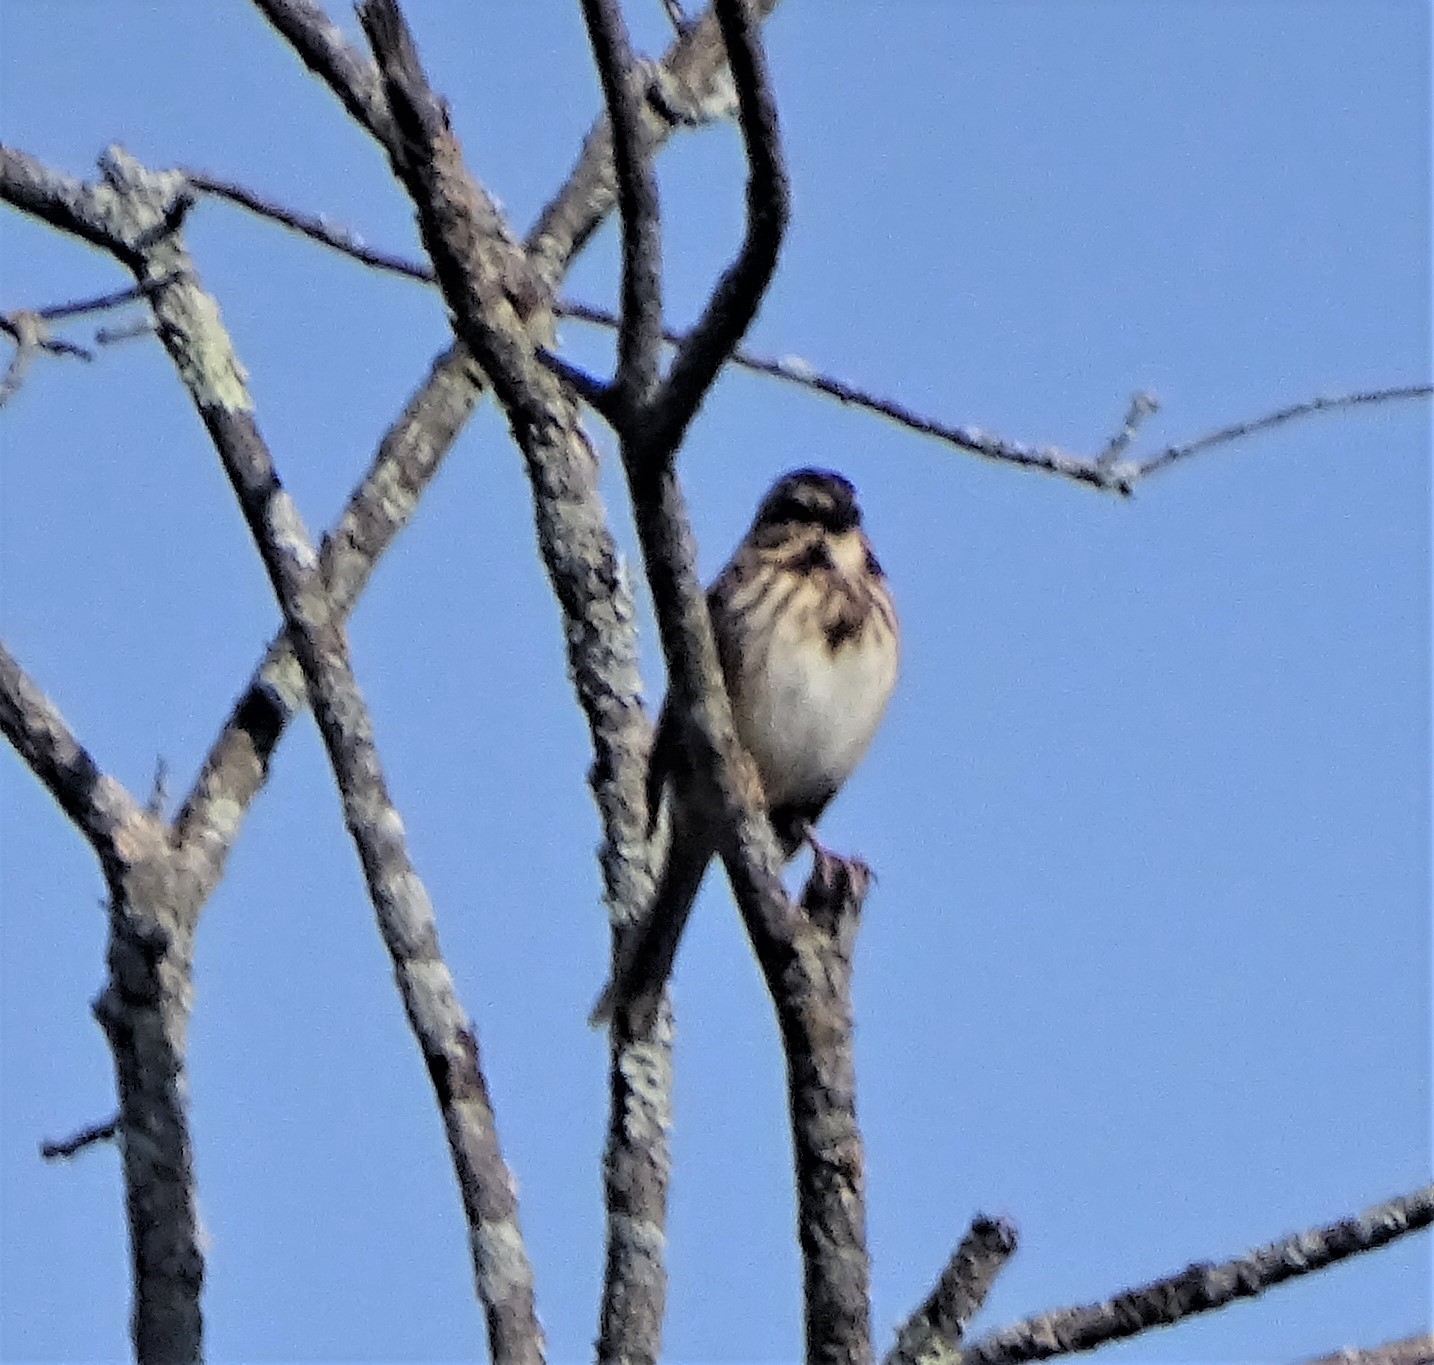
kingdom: Animalia
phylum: Chordata
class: Aves
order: Passeriformes
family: Passerellidae
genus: Melospiza
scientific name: Melospiza melodia
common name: Song sparrow
